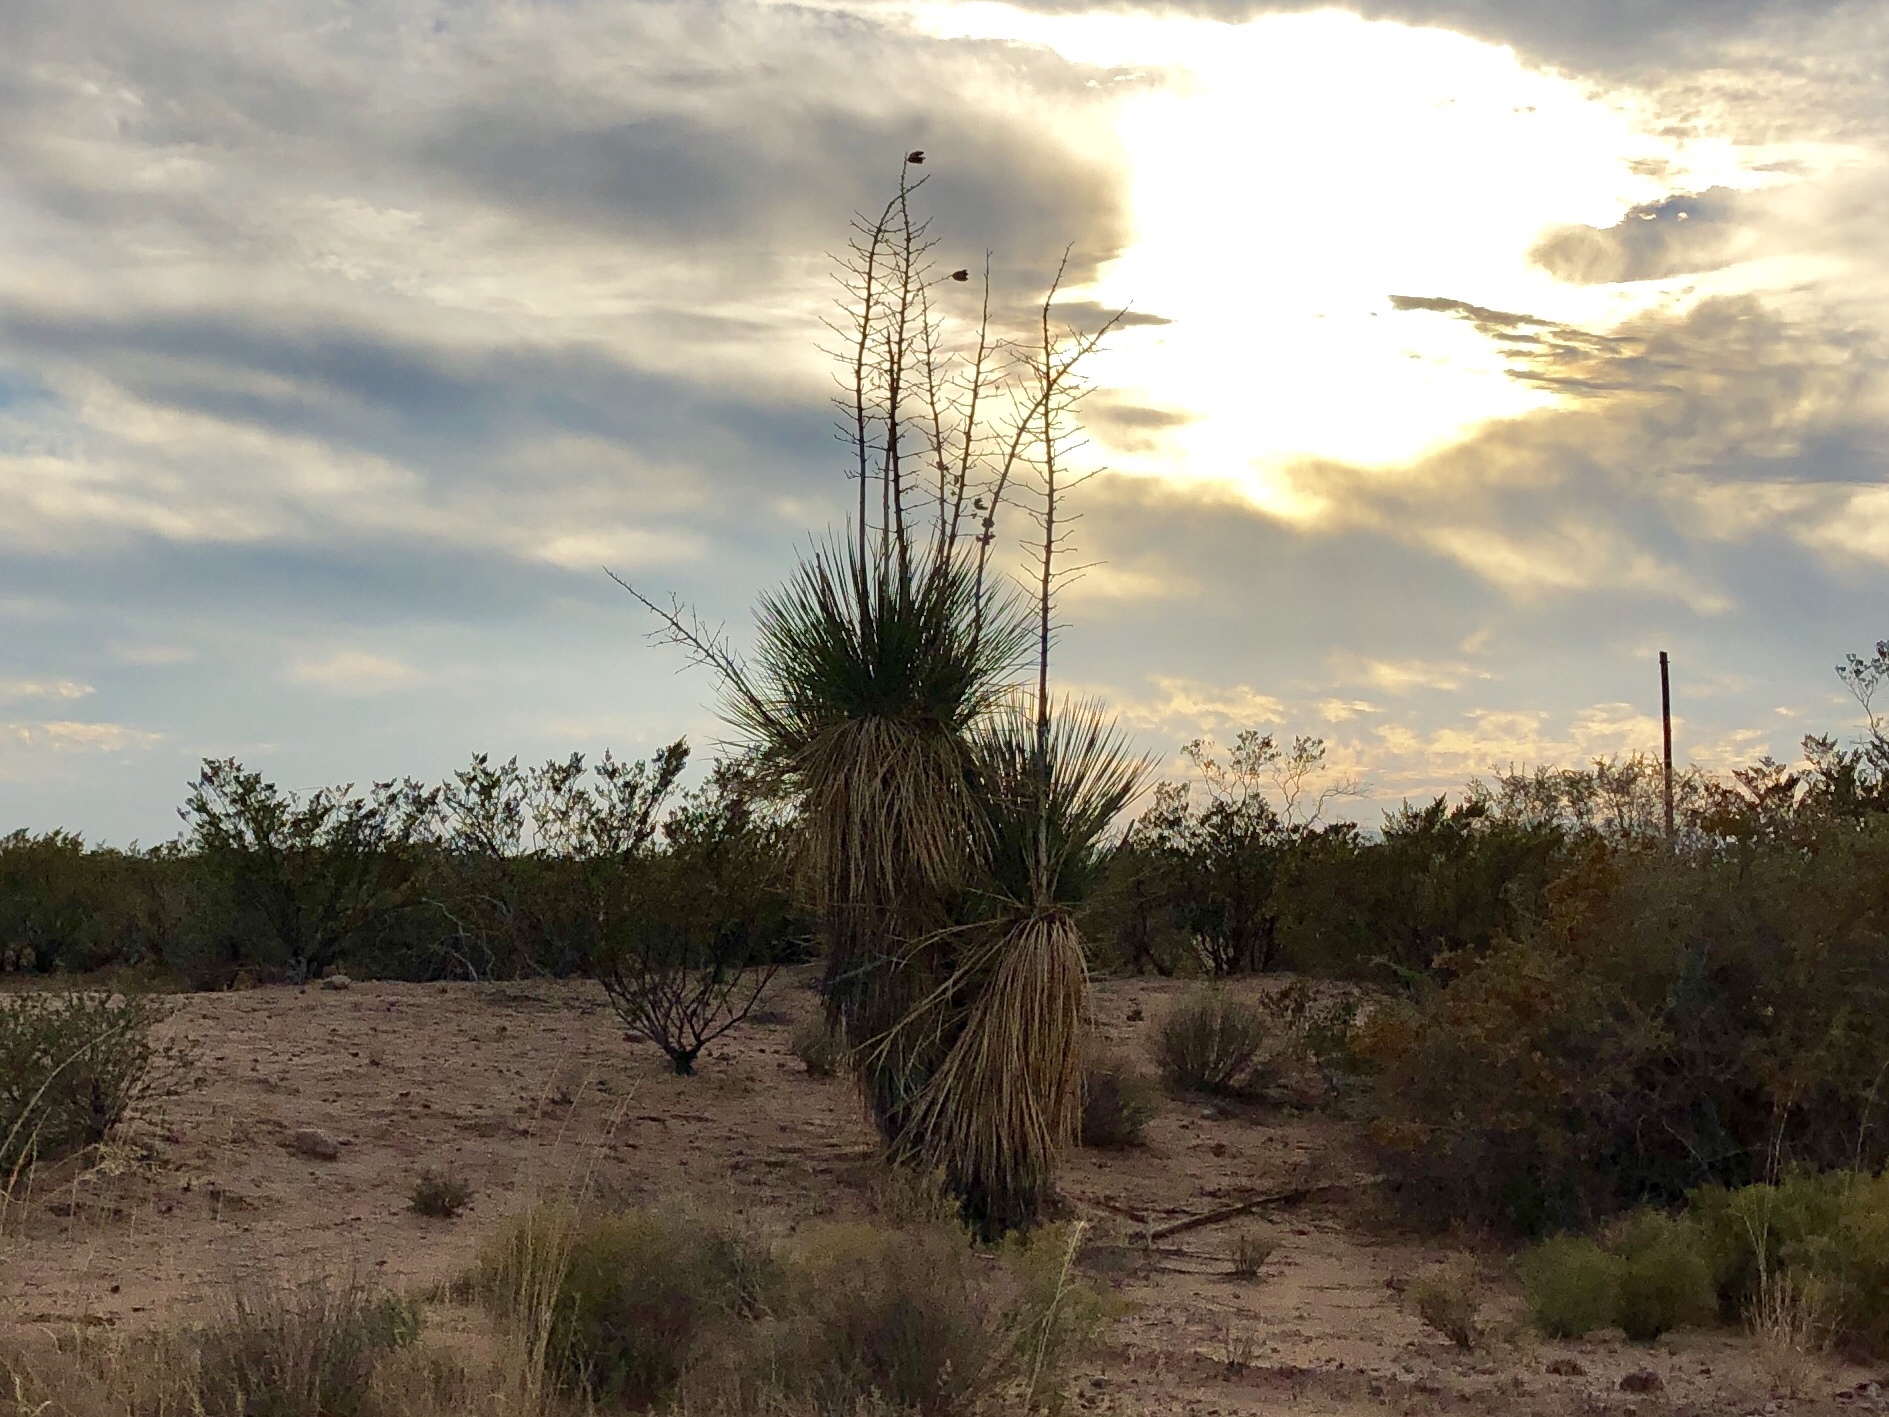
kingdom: Plantae
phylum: Tracheophyta
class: Liliopsida
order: Asparagales
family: Asparagaceae
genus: Yucca
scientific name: Yucca elata
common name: Palmella
